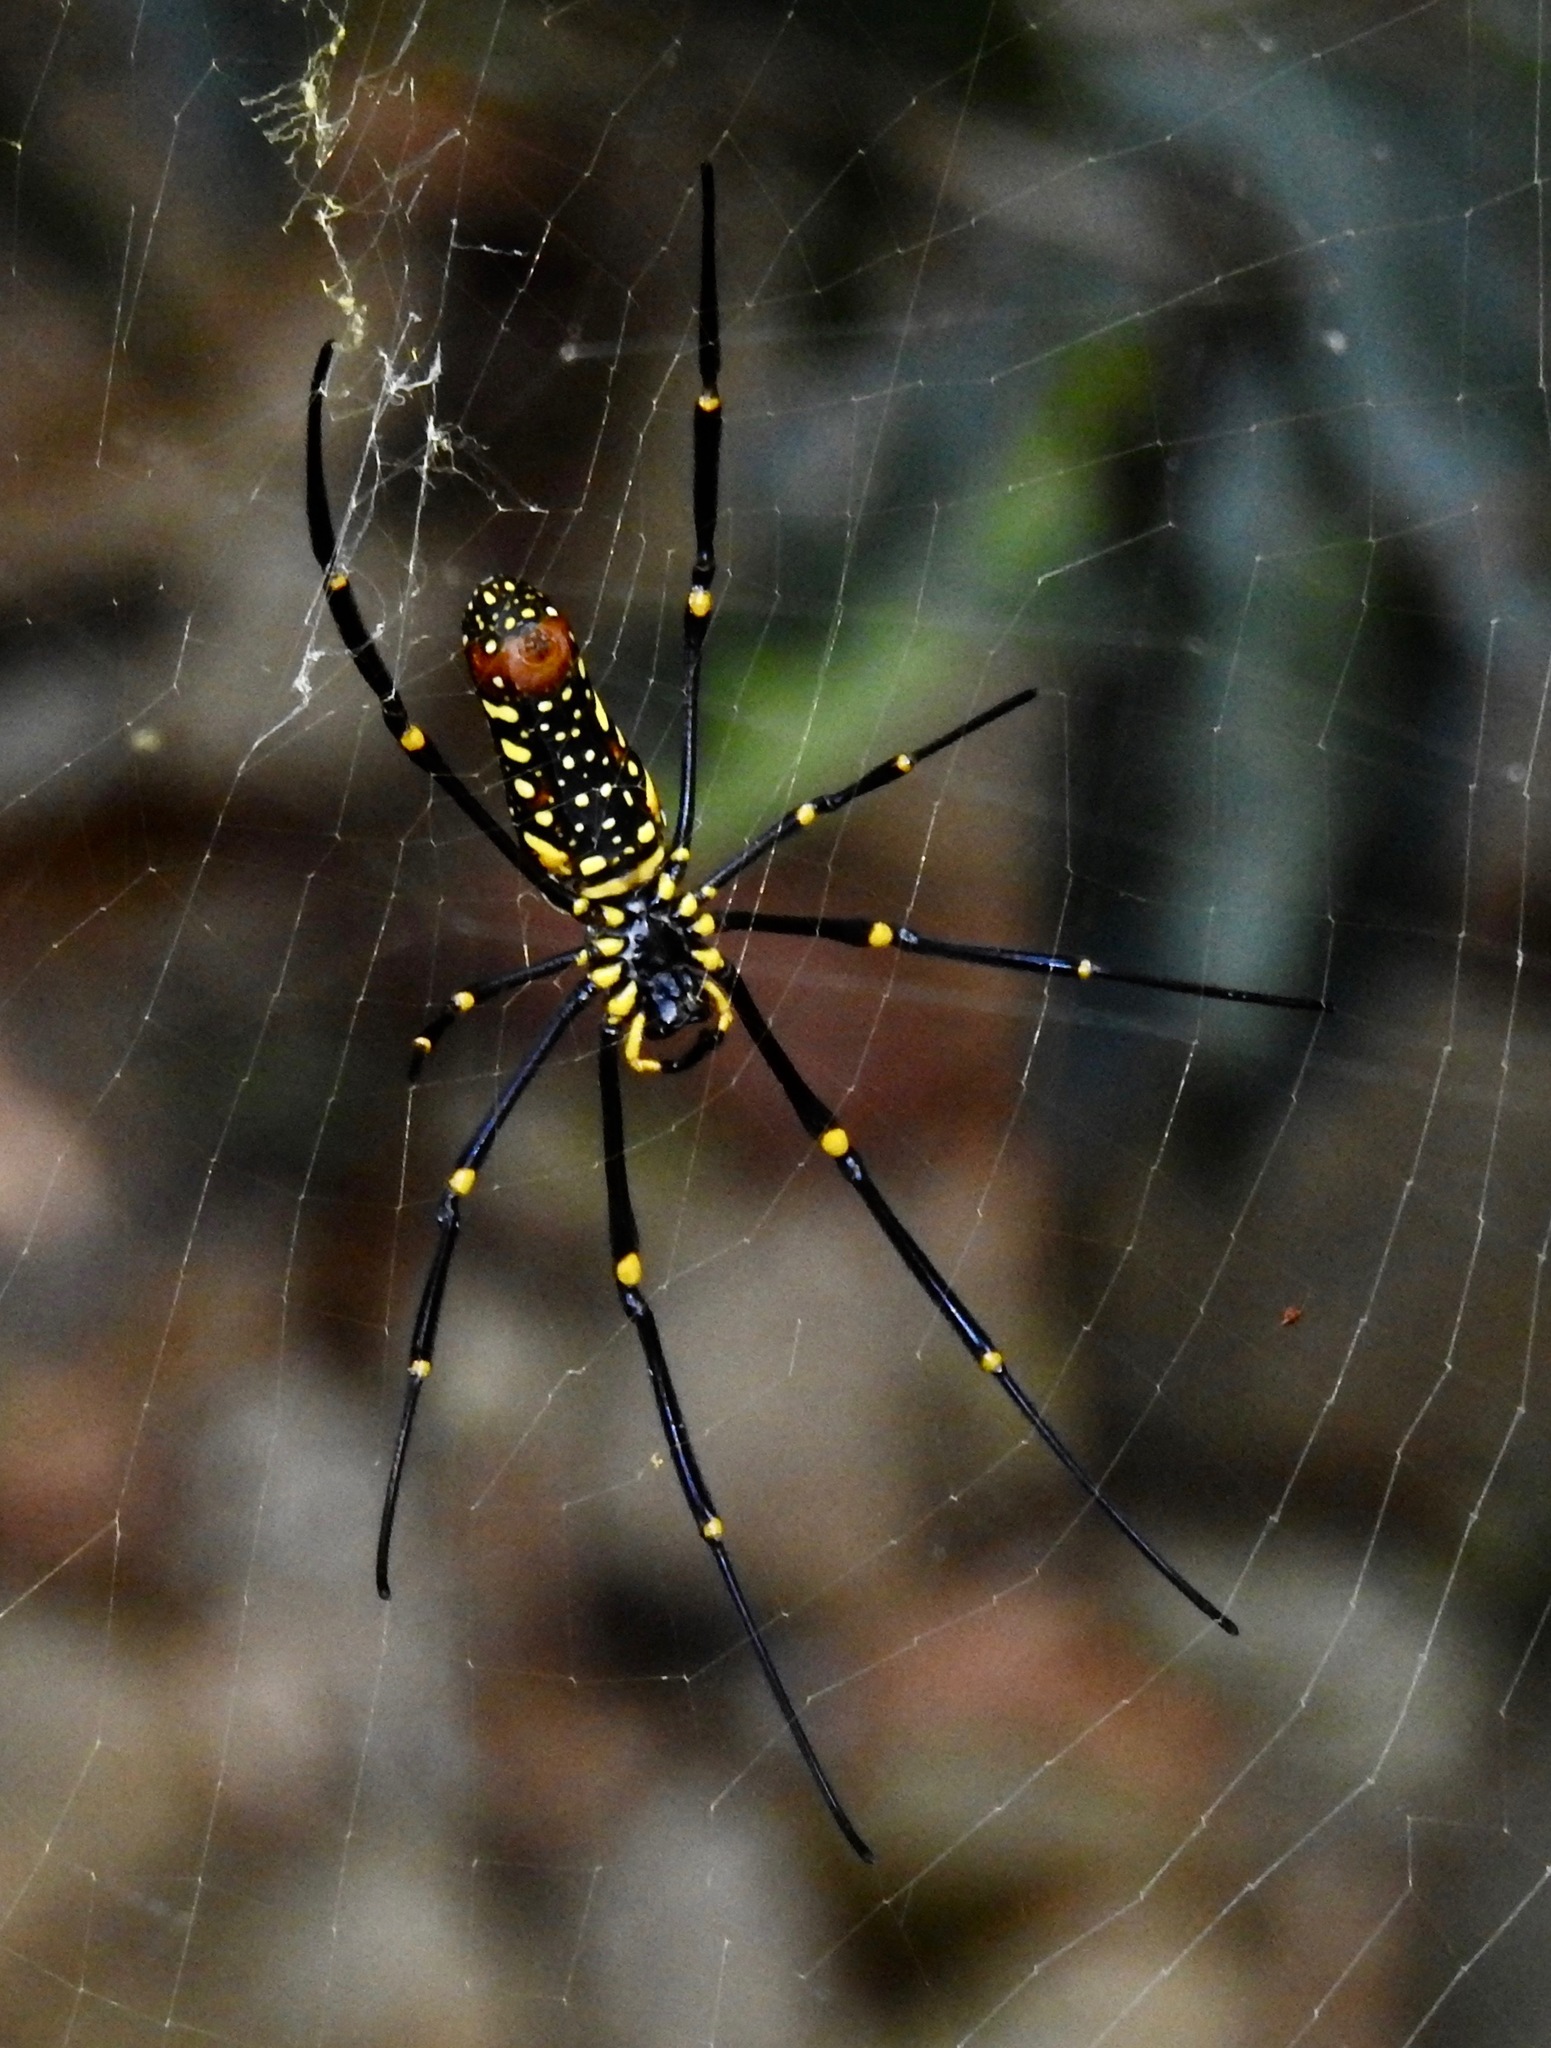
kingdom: Animalia
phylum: Arthropoda
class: Arachnida
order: Araneae
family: Araneidae
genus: Nephila
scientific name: Nephila pilipes
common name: Giant golden orb weaver
